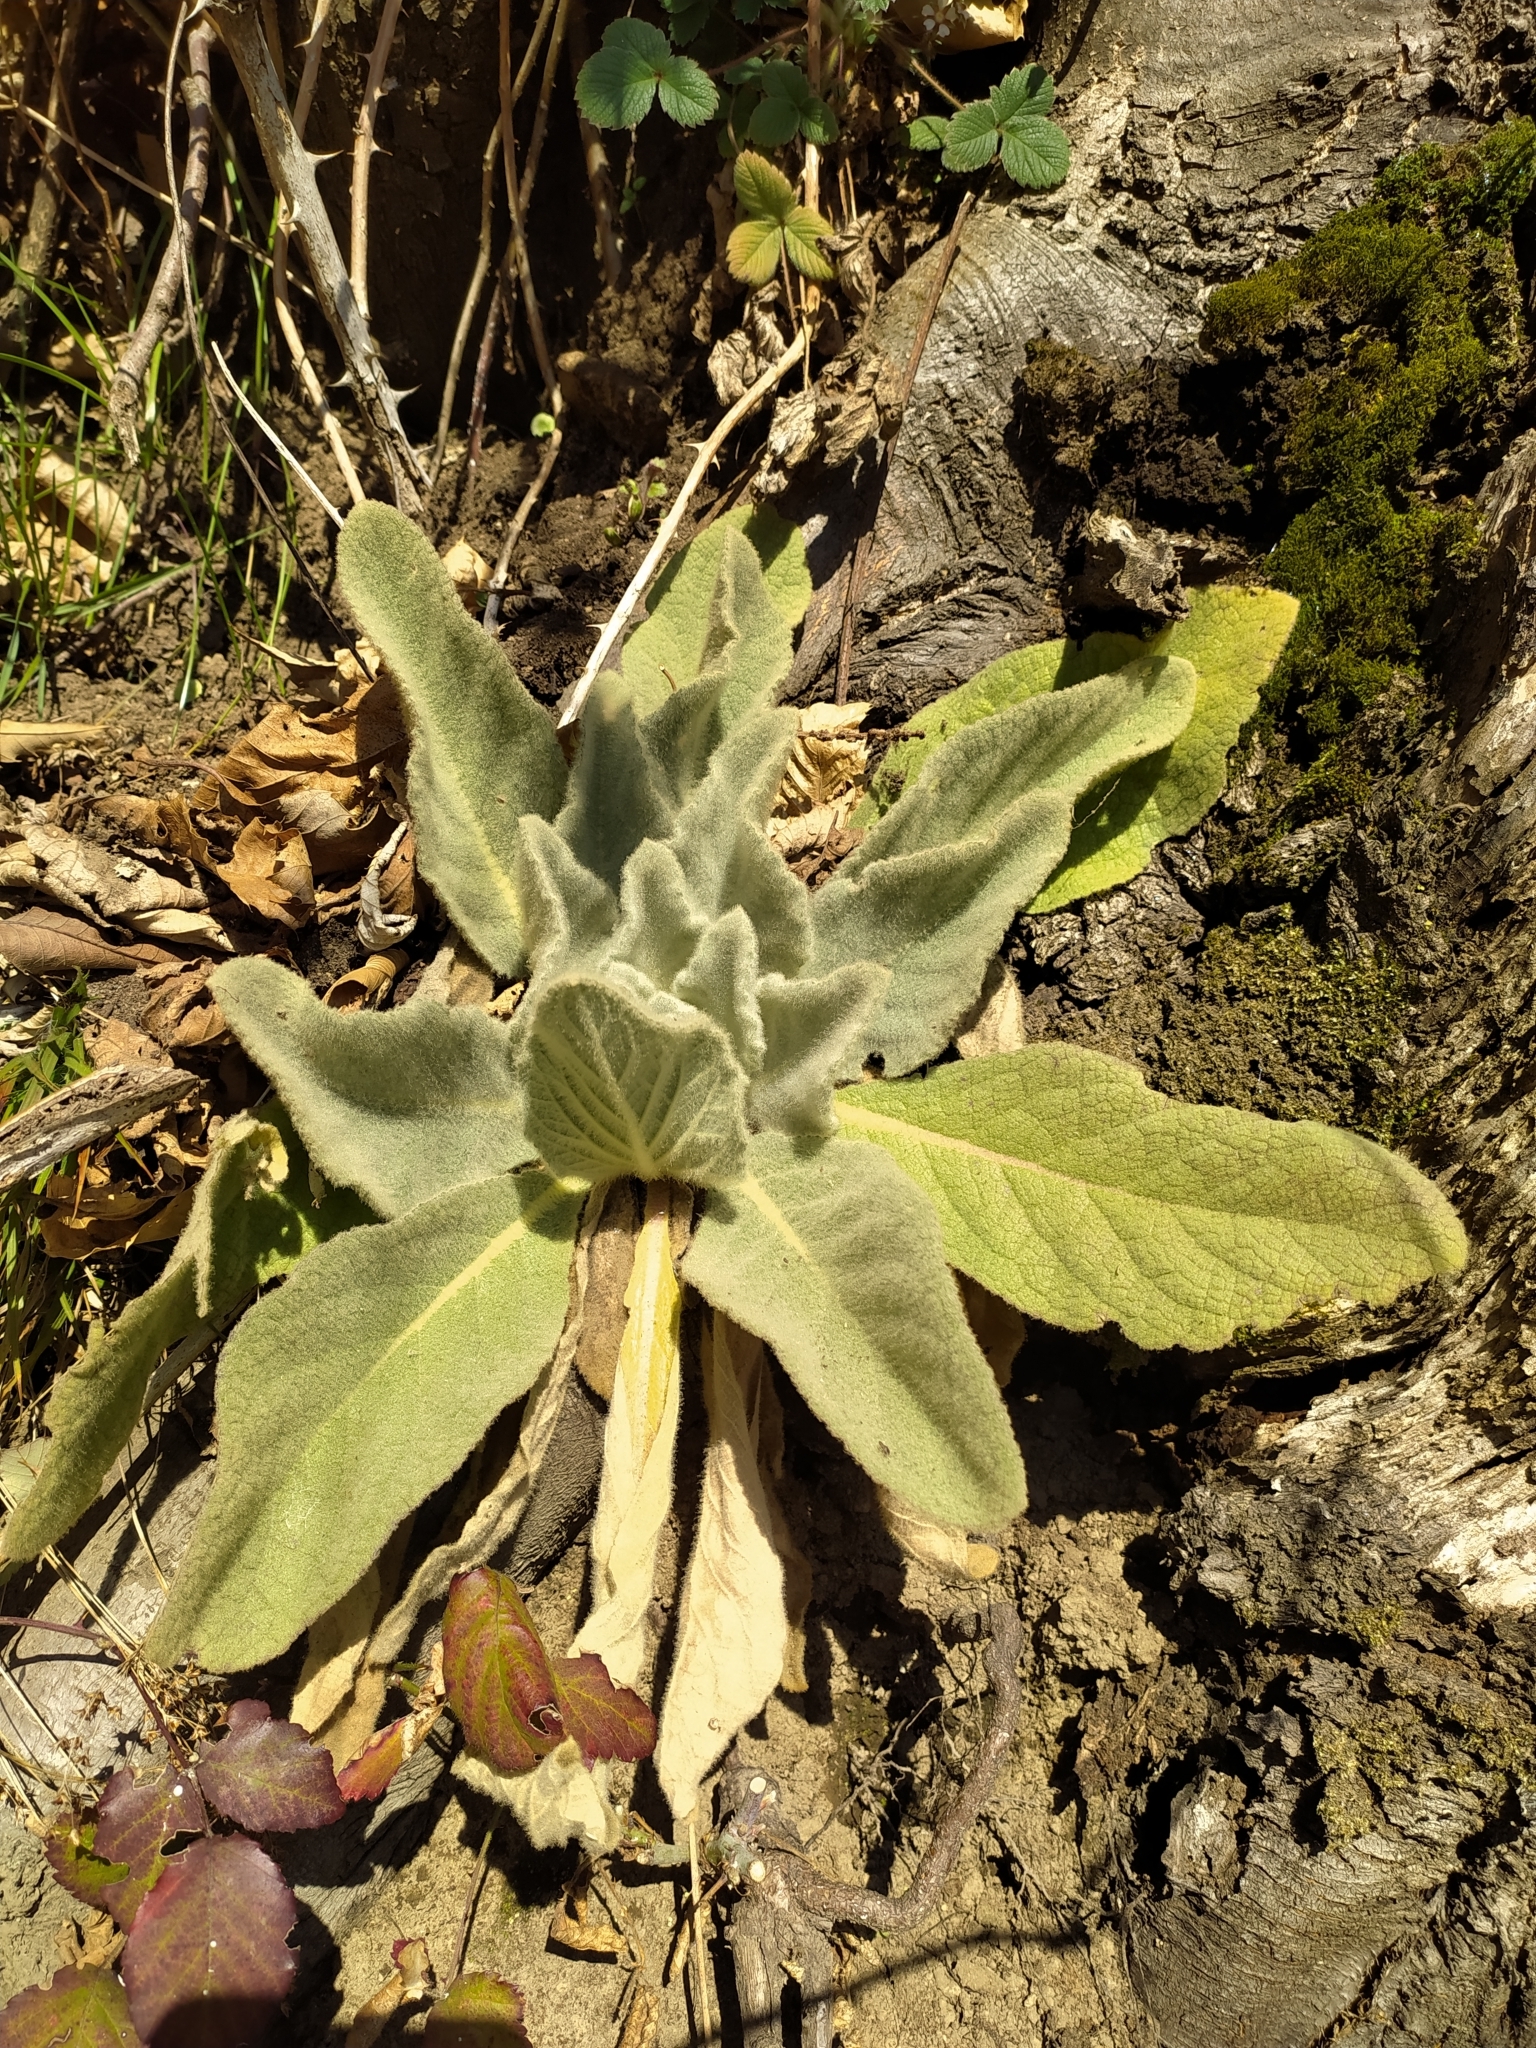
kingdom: Plantae
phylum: Tracheophyta
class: Magnoliopsida
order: Lamiales
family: Scrophulariaceae
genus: Verbascum
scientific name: Verbascum thapsus
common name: Common mullein
